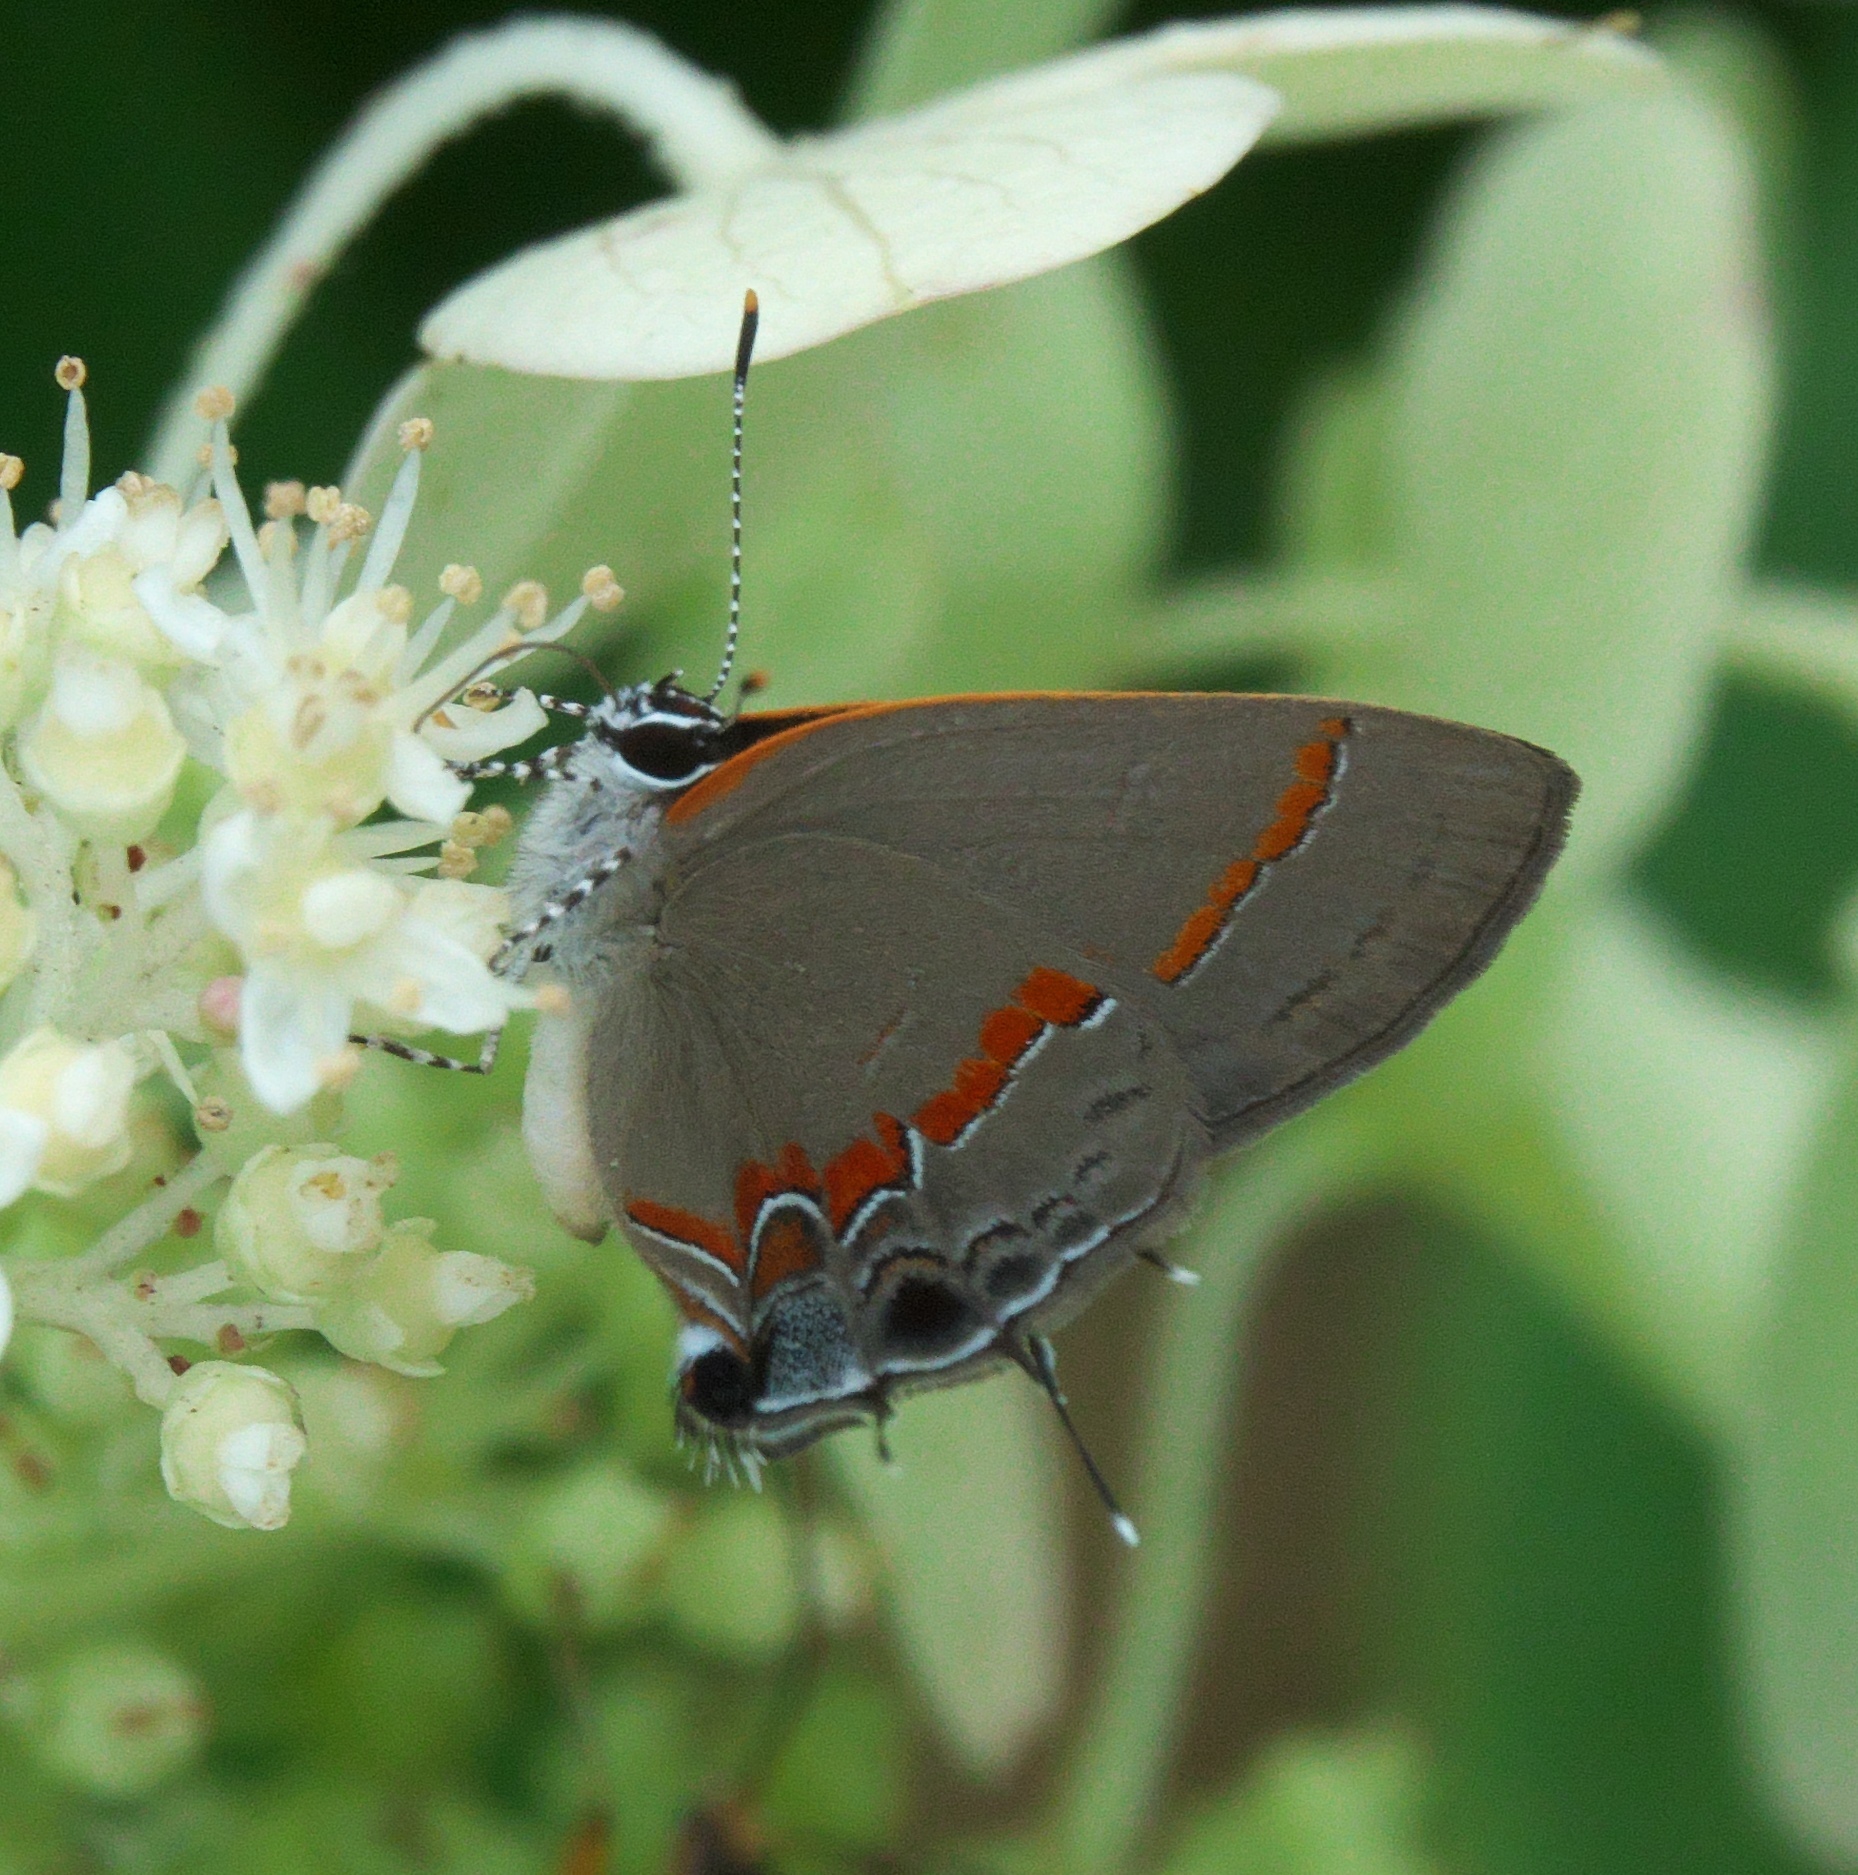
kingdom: Animalia
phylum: Arthropoda
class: Insecta
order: Lepidoptera
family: Lycaenidae
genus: Calycopis
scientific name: Calycopis cecrops
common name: Red-banded hairstreak
